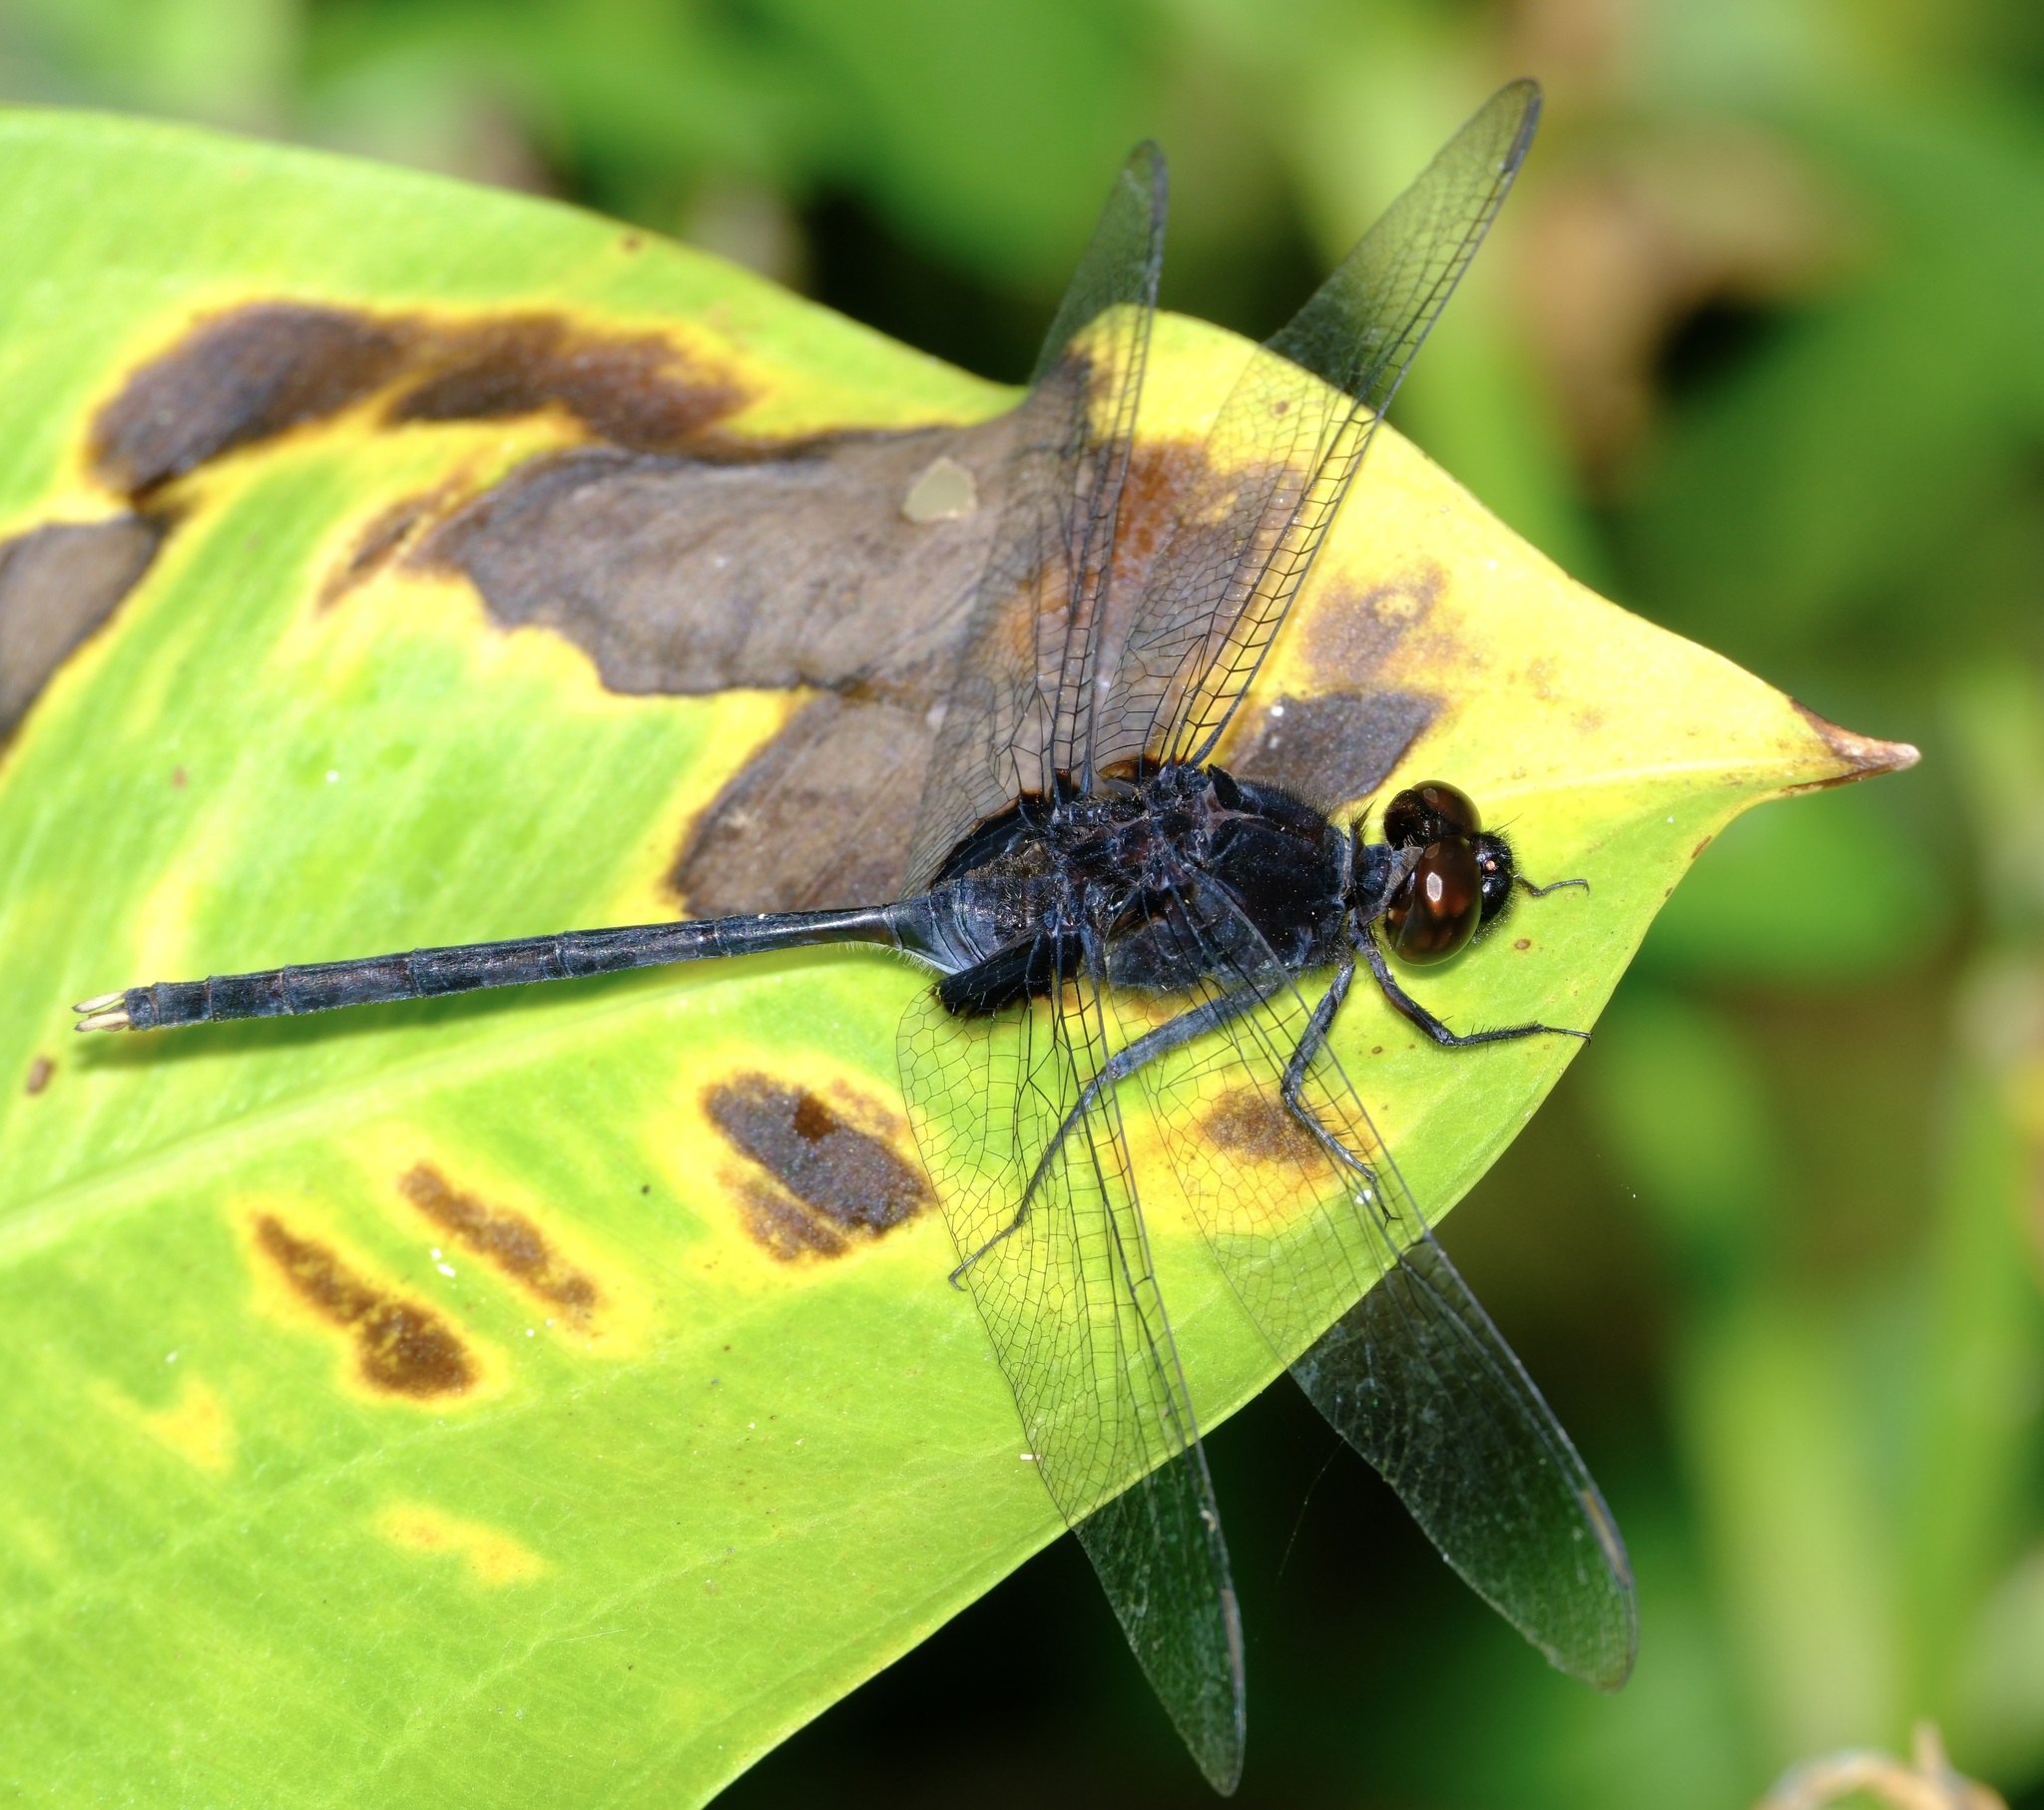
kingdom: Animalia
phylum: Arthropoda
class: Insecta
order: Odonata
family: Libellulidae
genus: Erythemis
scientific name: Erythemis plebeja
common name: Pin-tailed pondhawk
